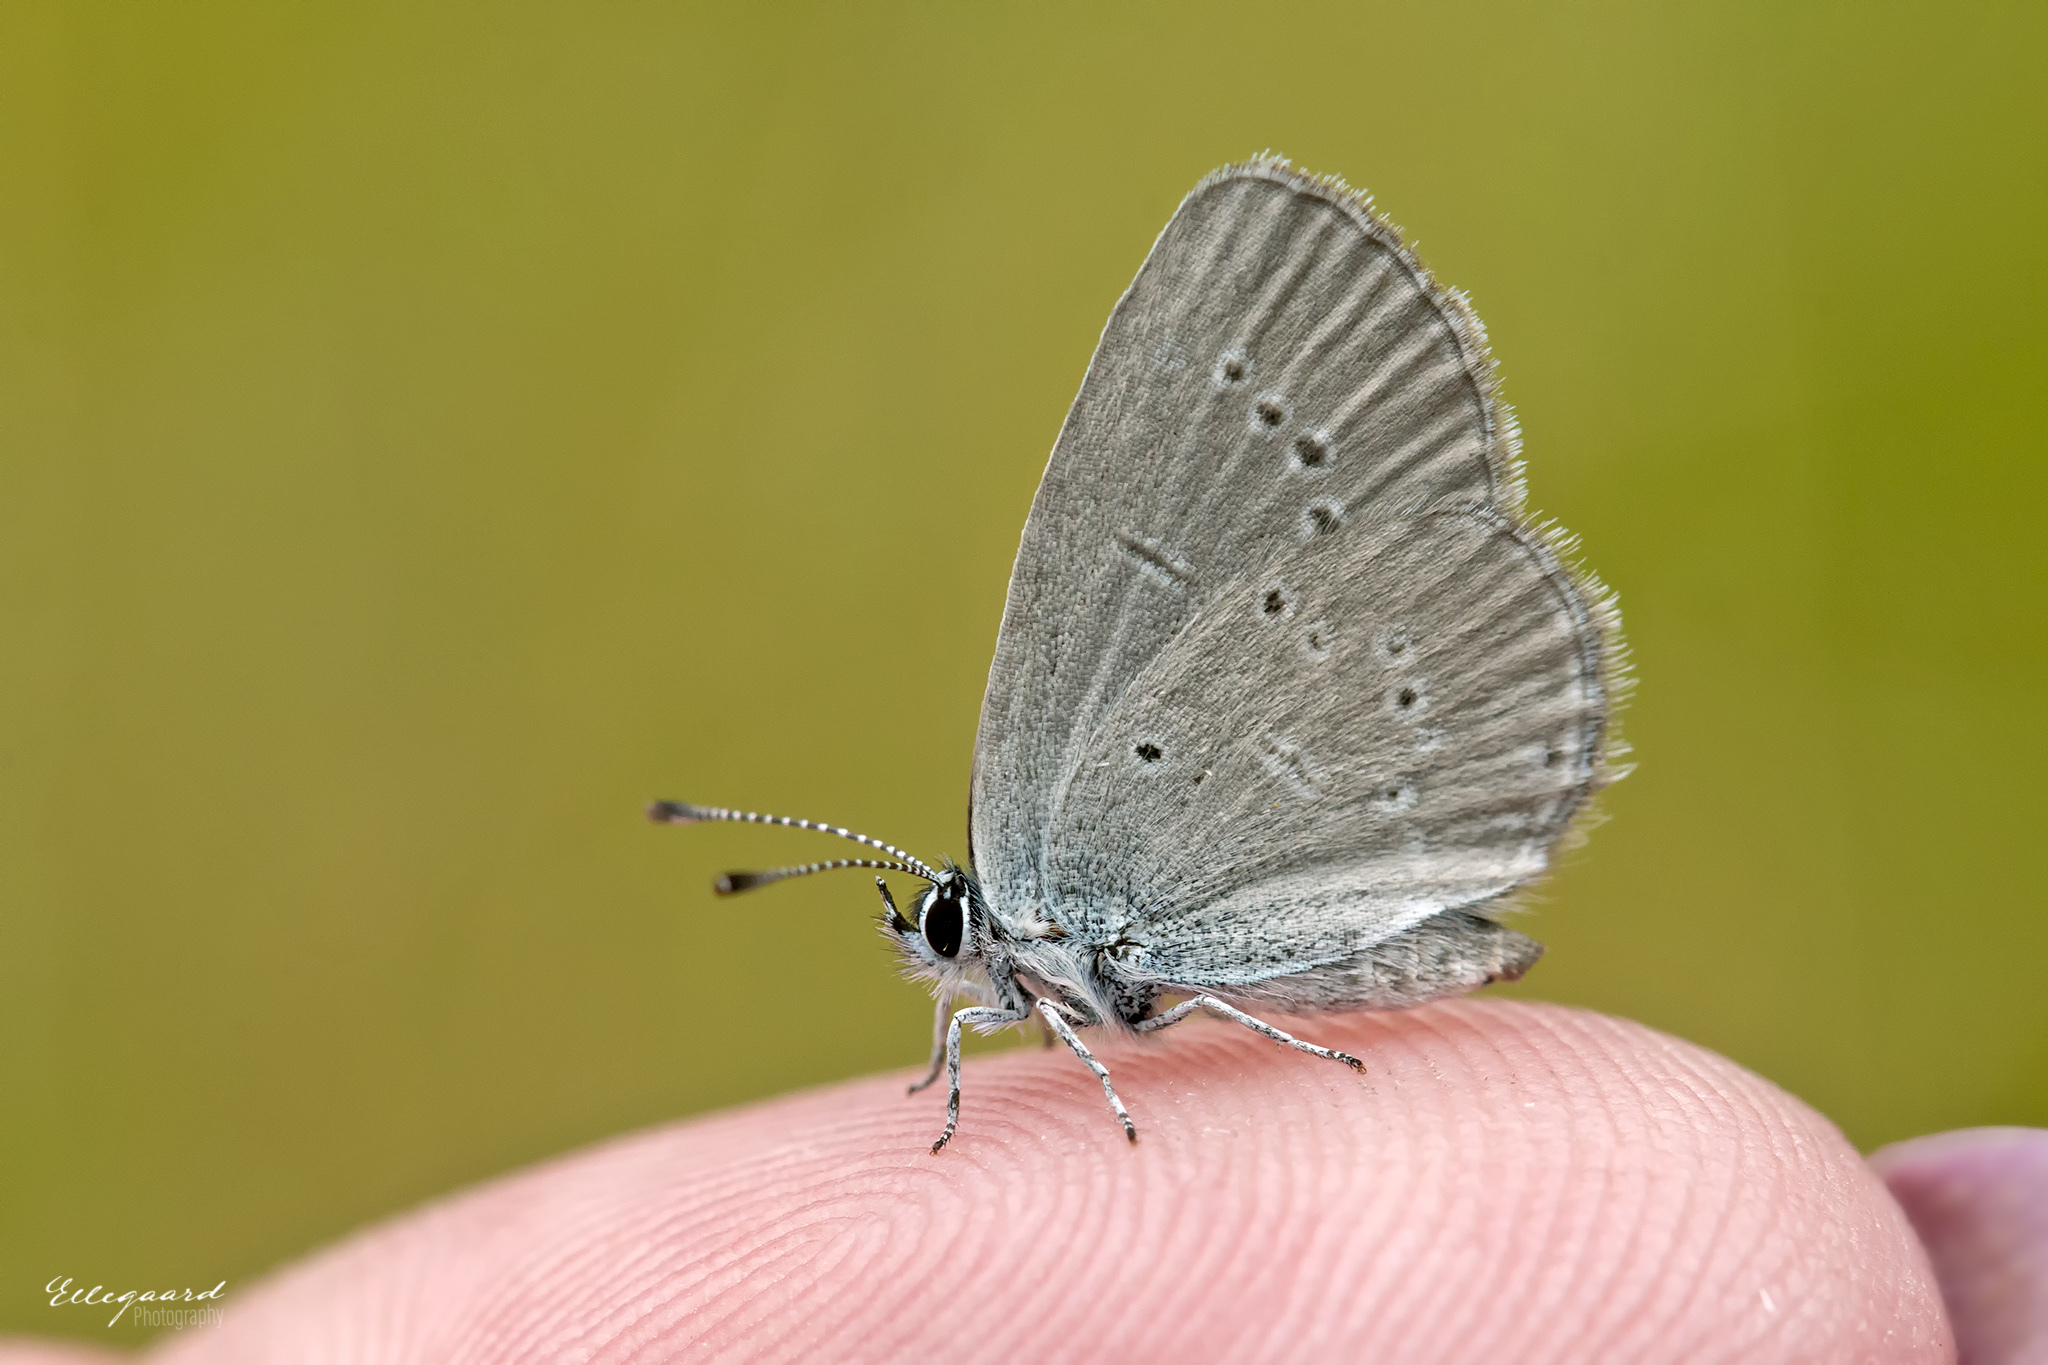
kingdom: Animalia
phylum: Arthropoda
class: Insecta
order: Lepidoptera
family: Lycaenidae
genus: Cupido
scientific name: Cupido minimus
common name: Small blue
